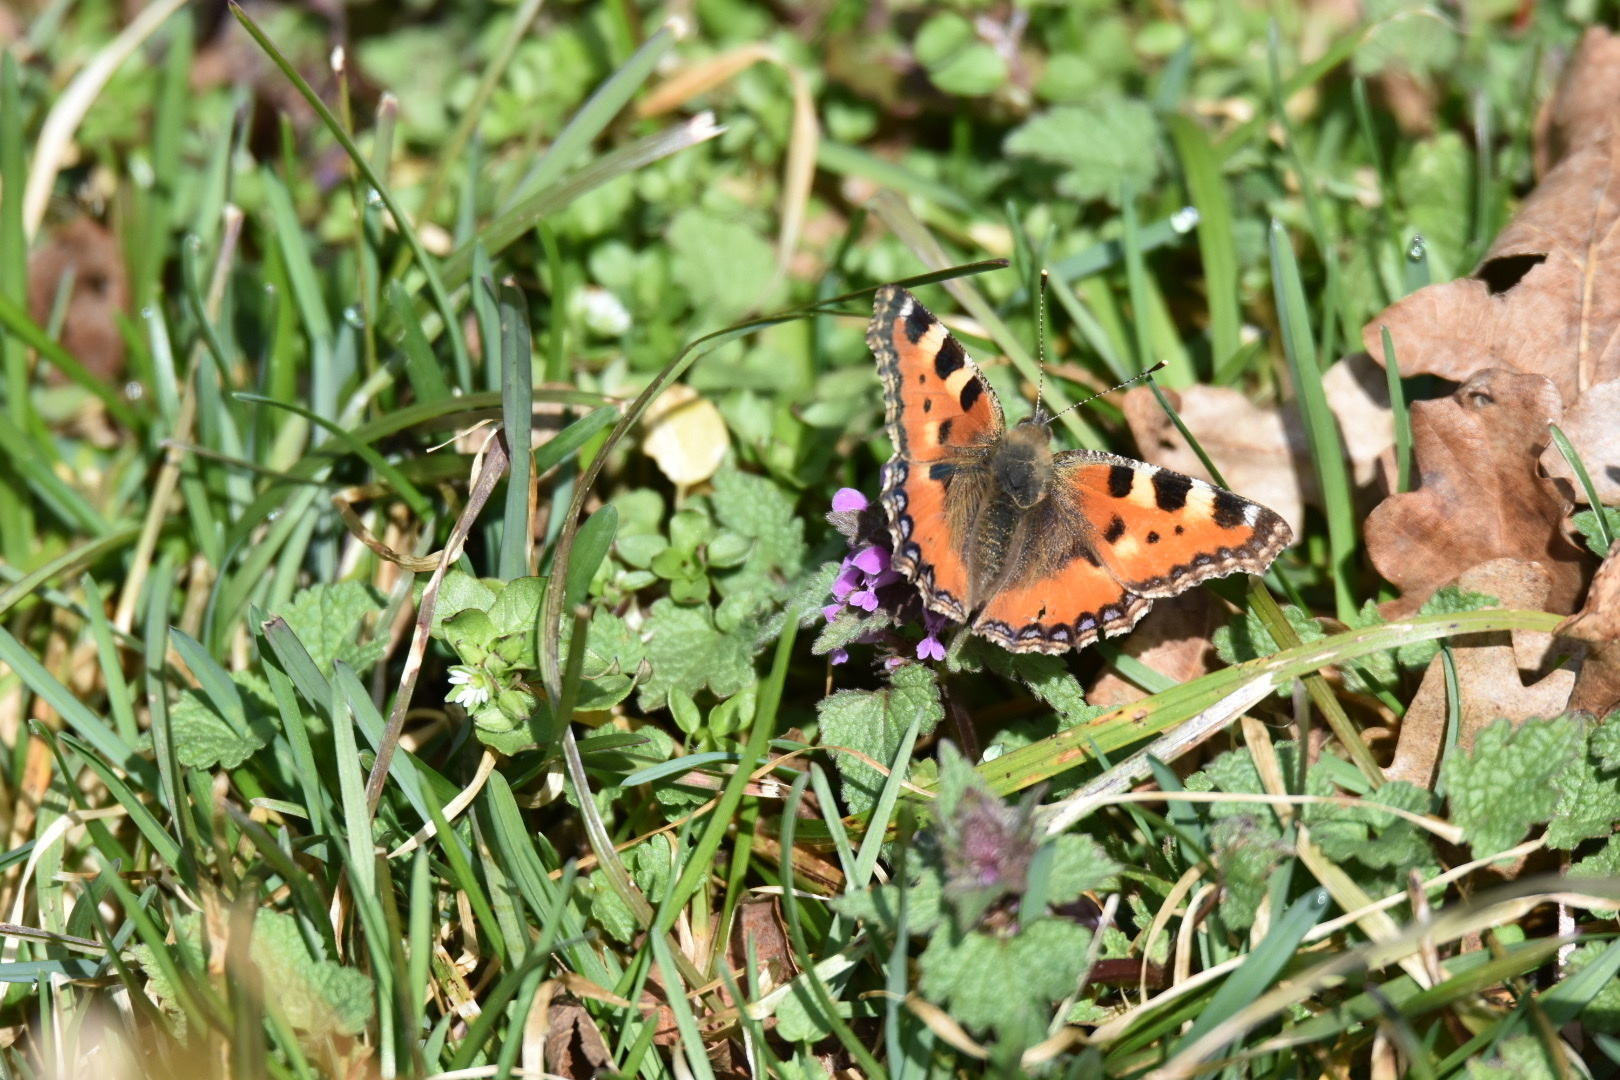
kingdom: Animalia
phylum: Arthropoda
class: Insecta
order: Lepidoptera
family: Nymphalidae
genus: Aglais
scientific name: Aglais urticae
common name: Small tortoiseshell
